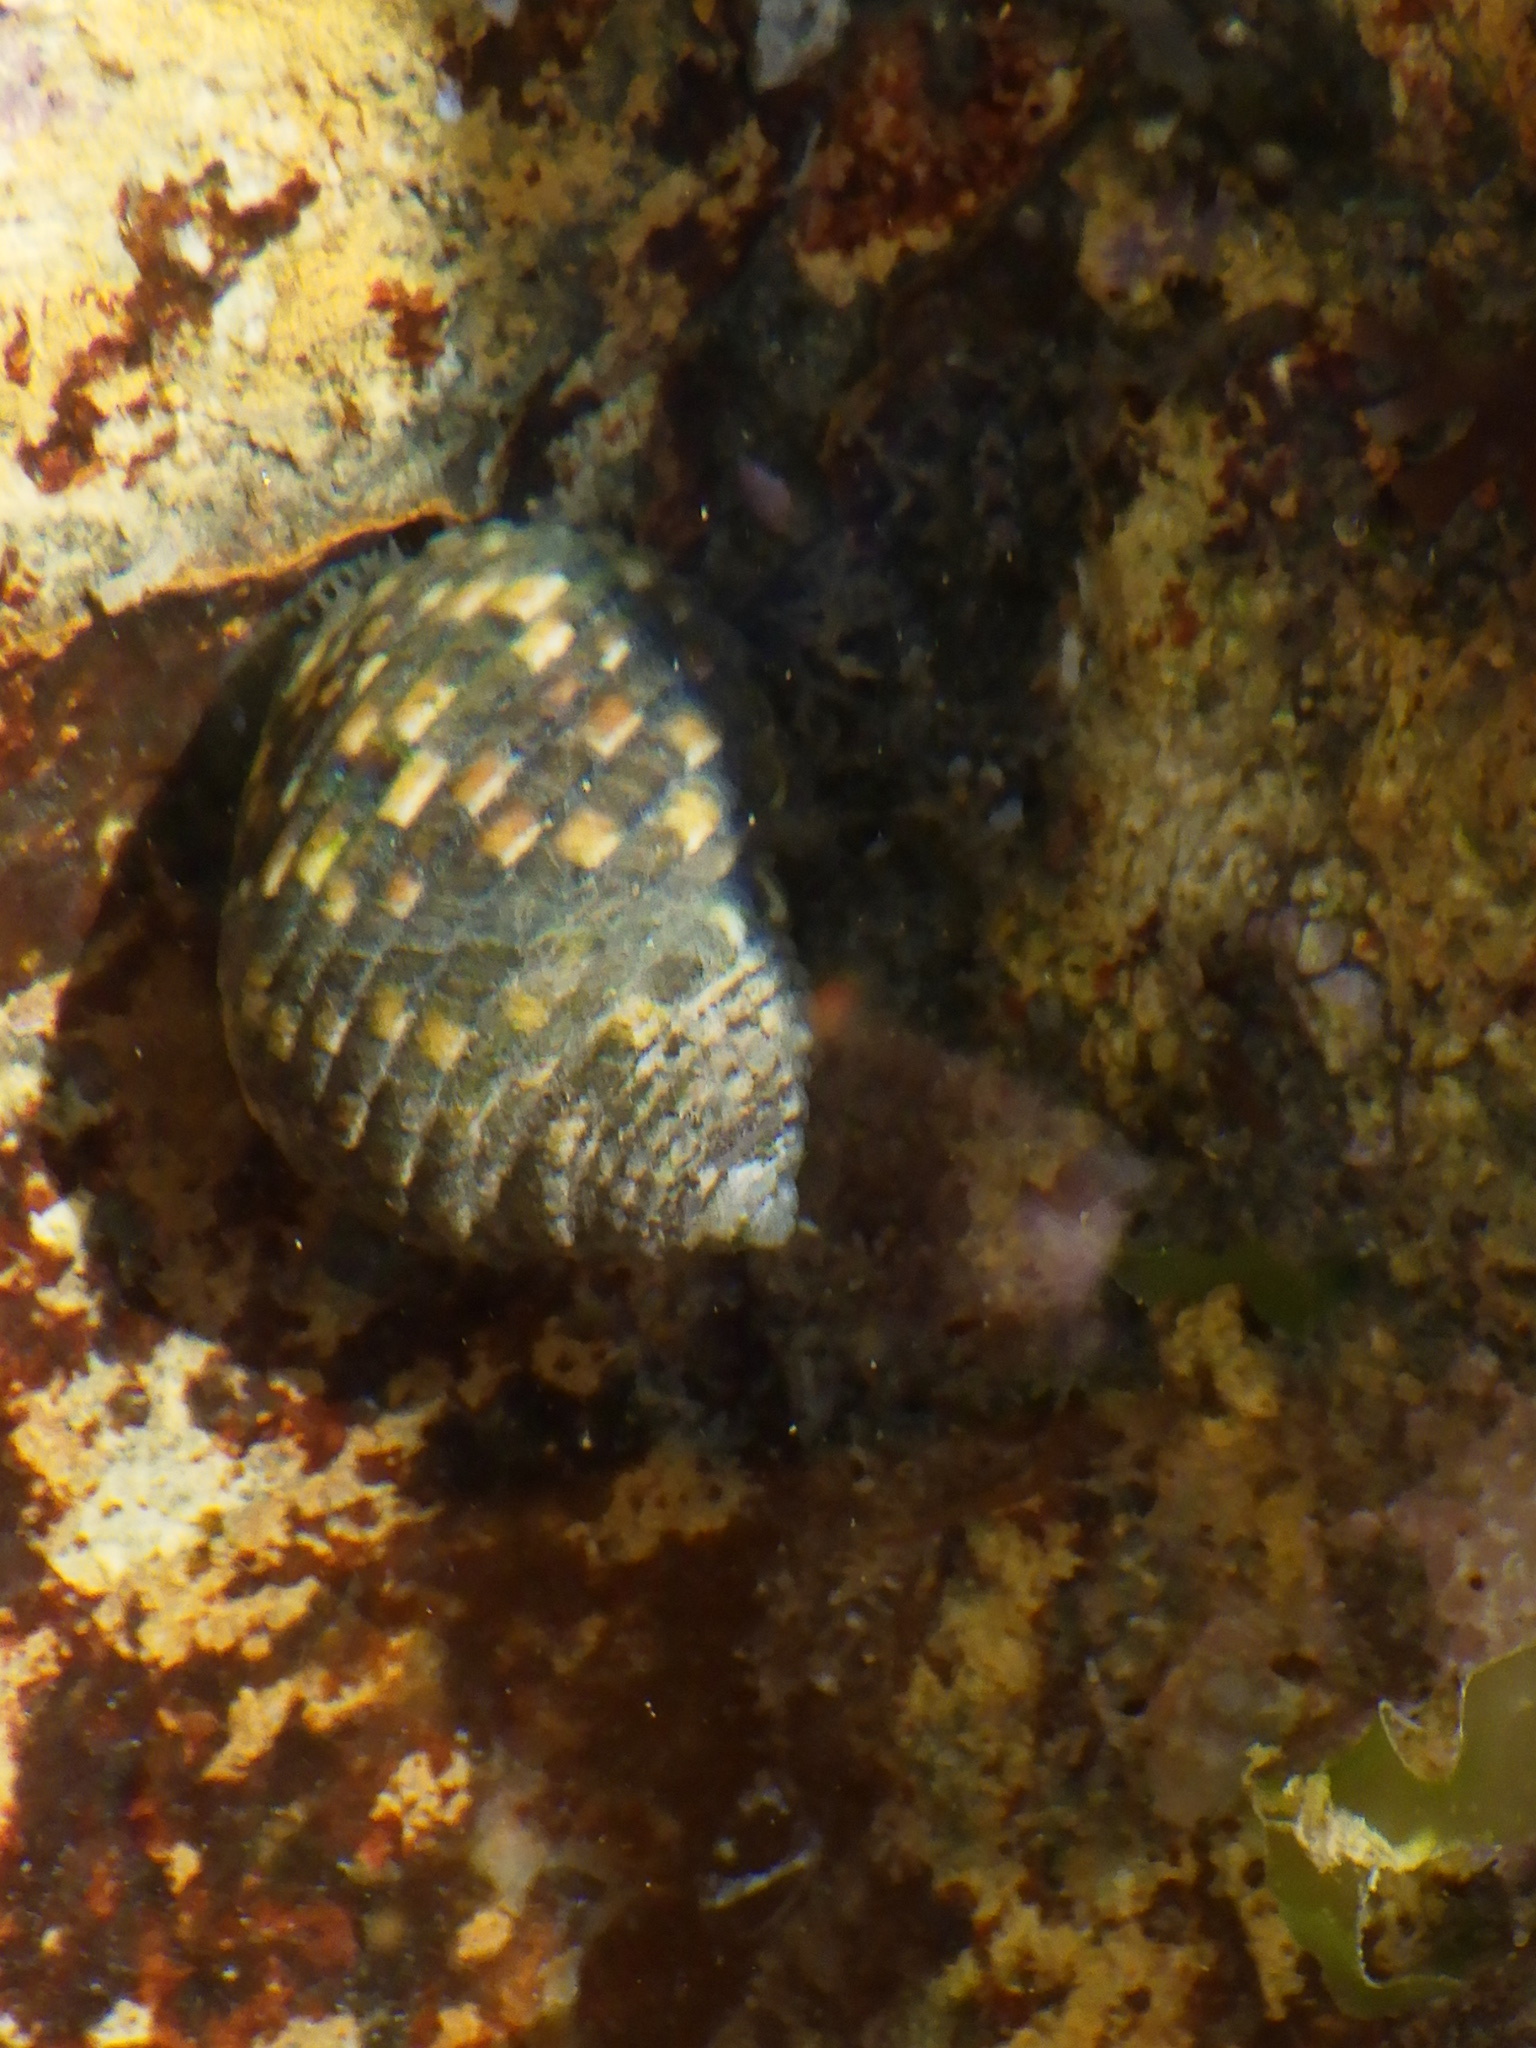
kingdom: Animalia
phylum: Mollusca
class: Gastropoda
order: Trochida
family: Trochidae
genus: Monodonta
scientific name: Monodonta confusa
